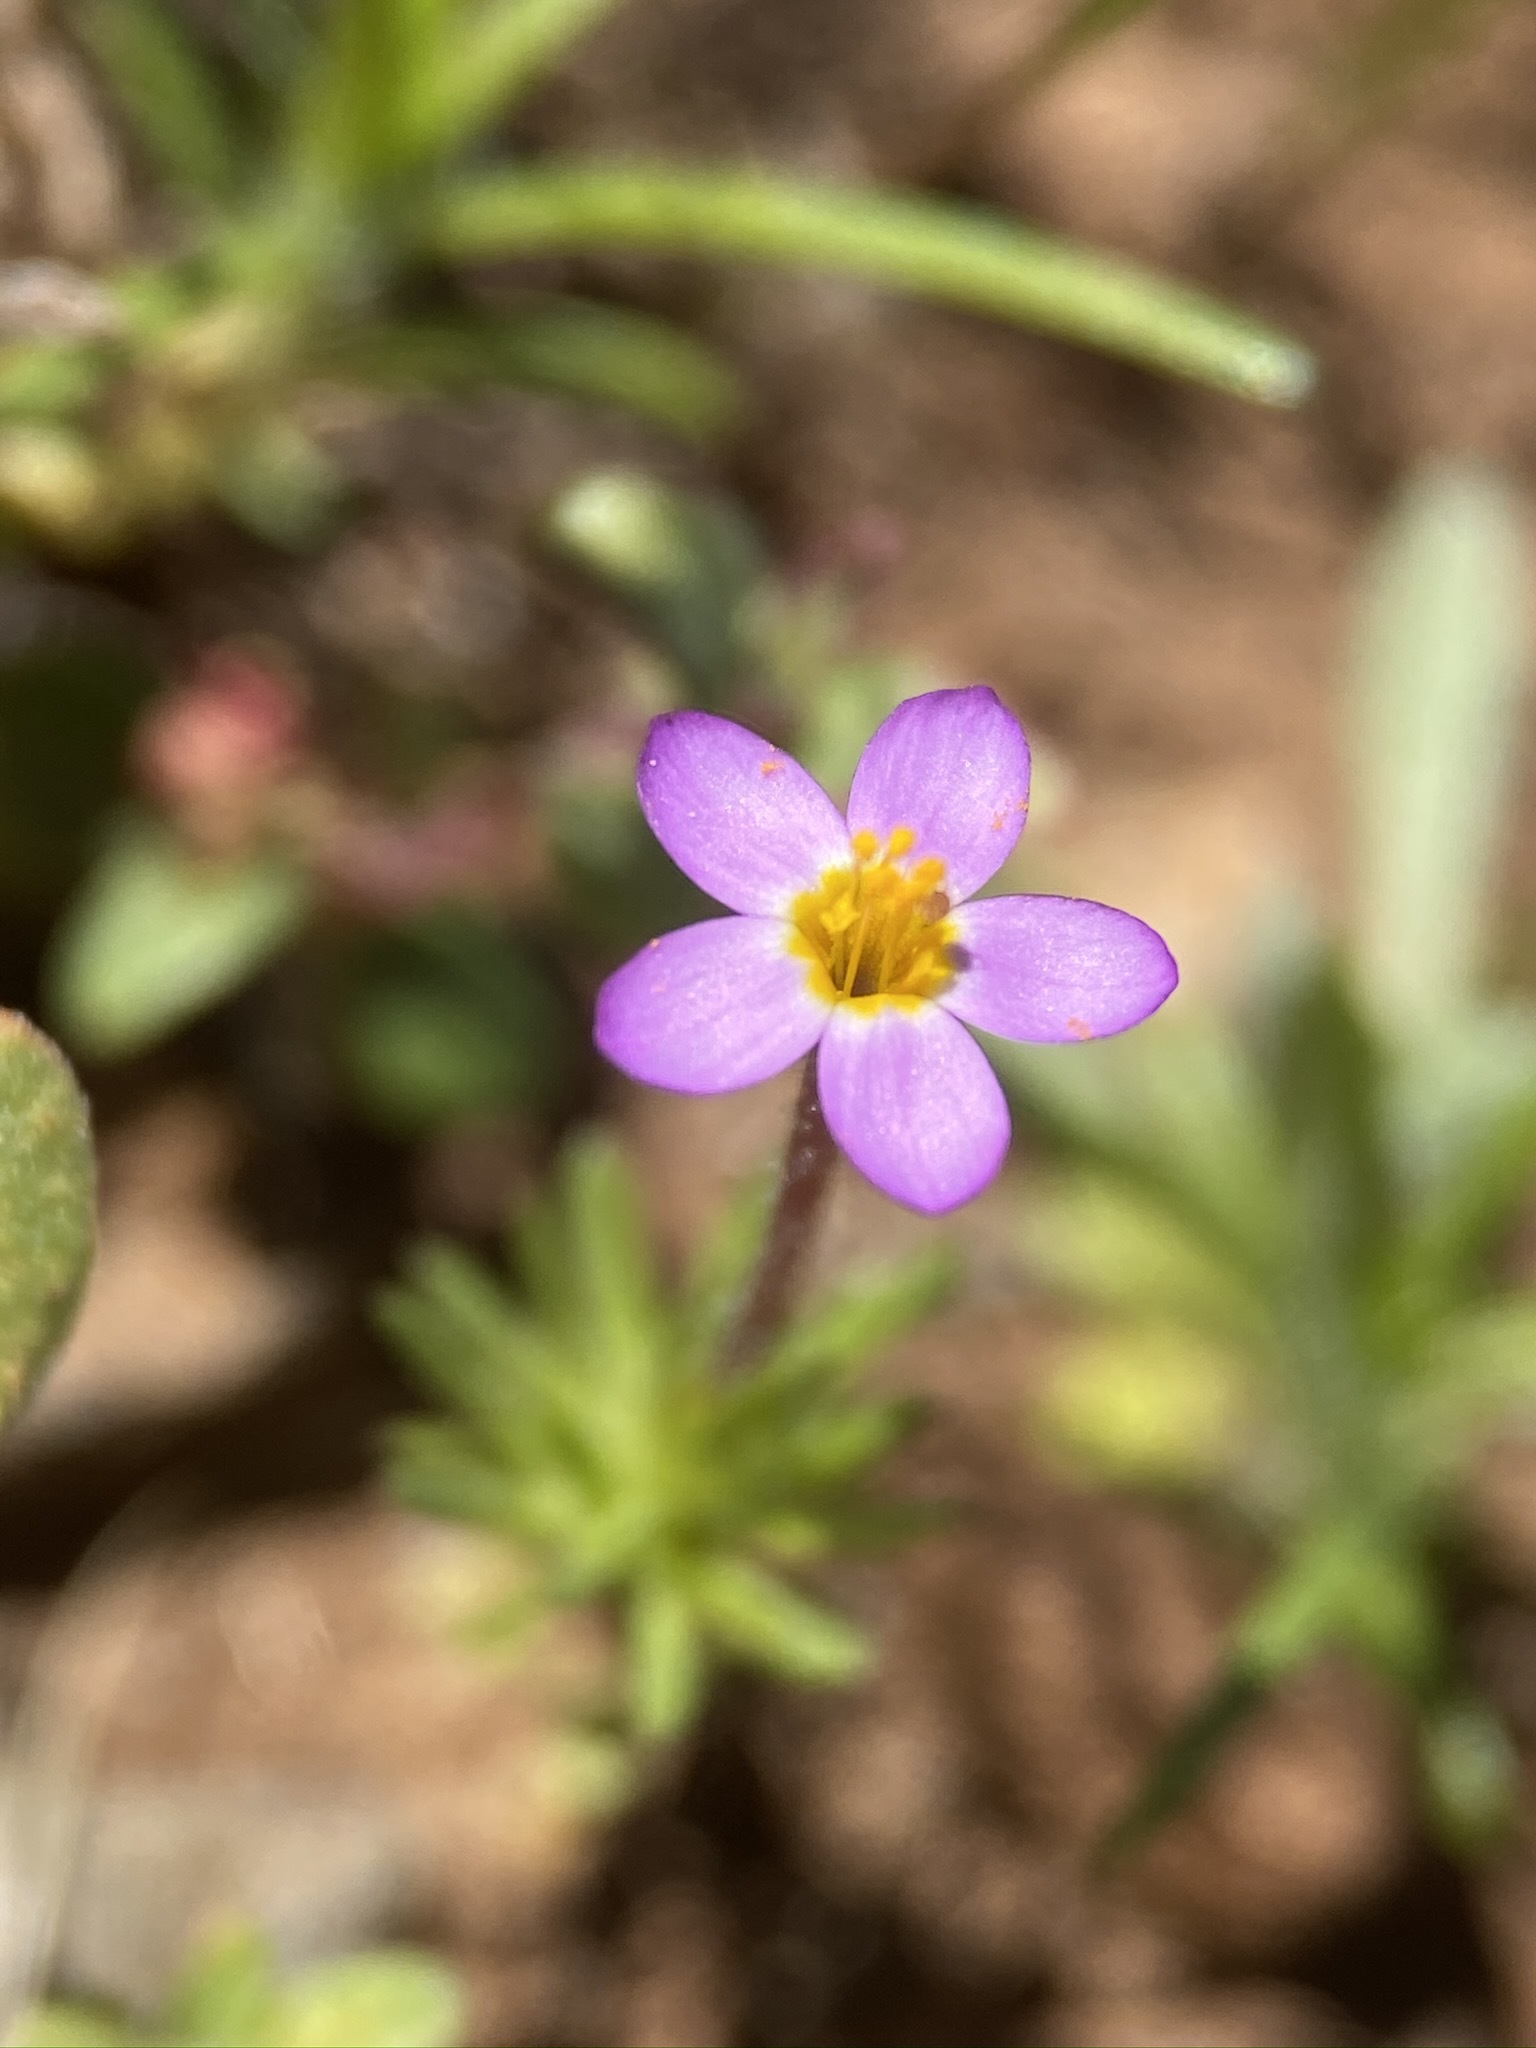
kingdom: Plantae
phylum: Tracheophyta
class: Magnoliopsida
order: Ericales
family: Polemoniaceae
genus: Leptosiphon
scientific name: Leptosiphon bicolor
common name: True babystars
